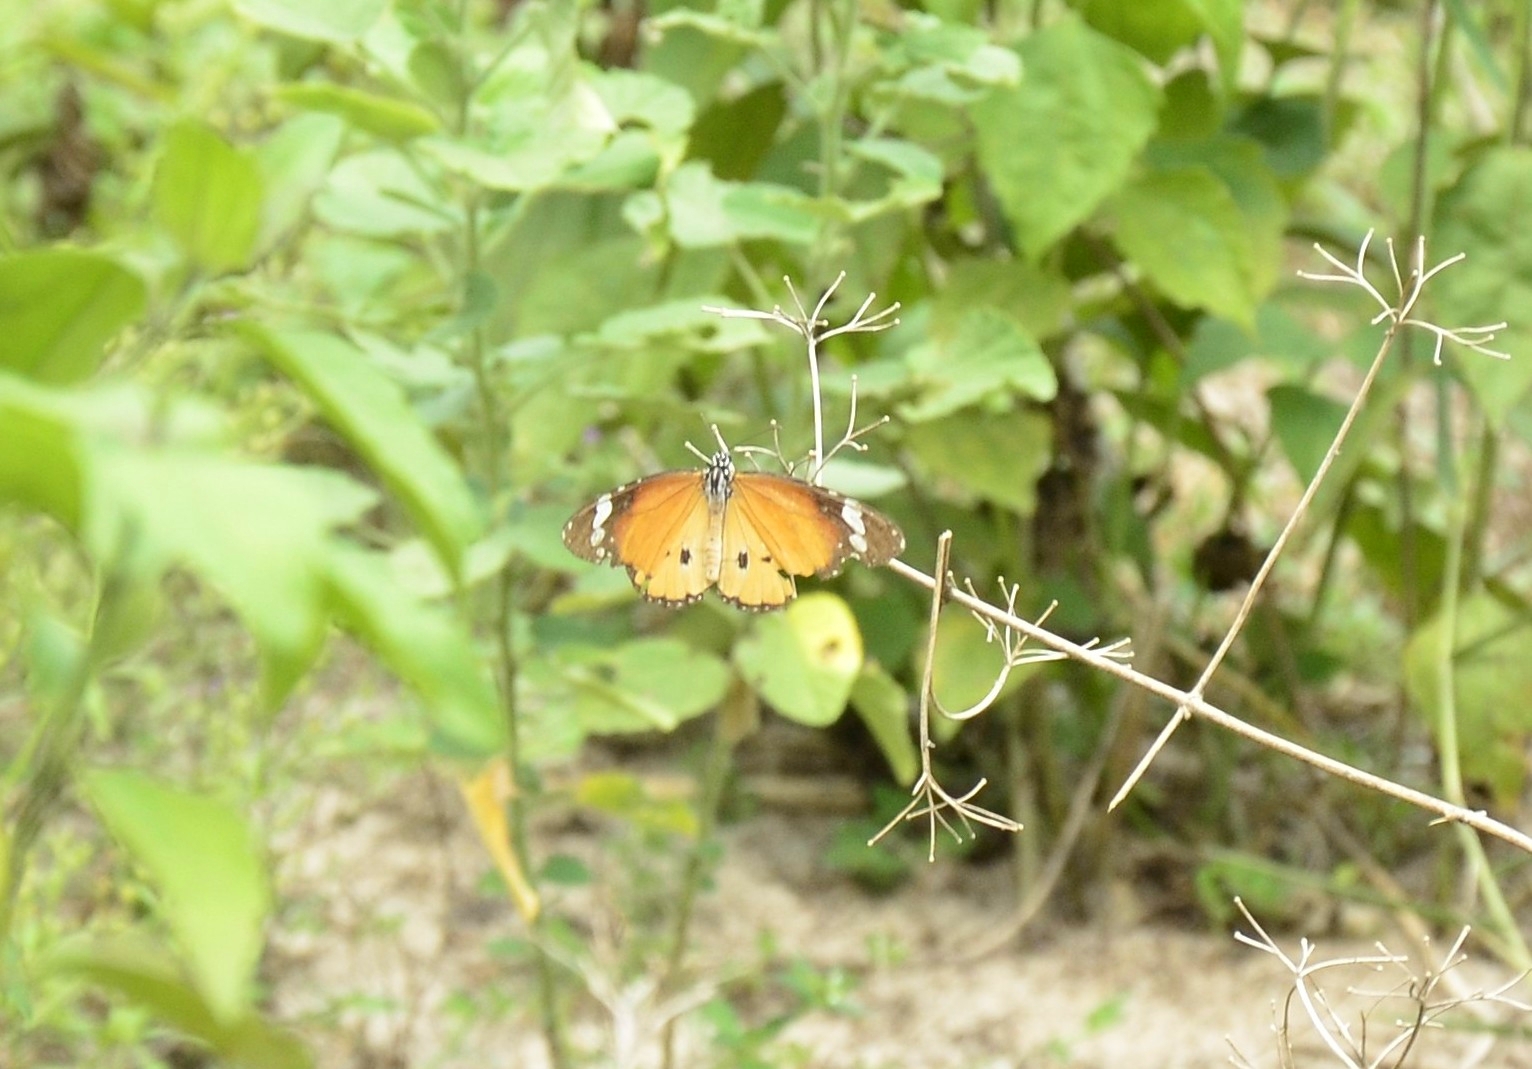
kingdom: Animalia
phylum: Arthropoda
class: Insecta
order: Lepidoptera
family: Nymphalidae
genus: Danaus
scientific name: Danaus chrysippus
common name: Plain tiger
